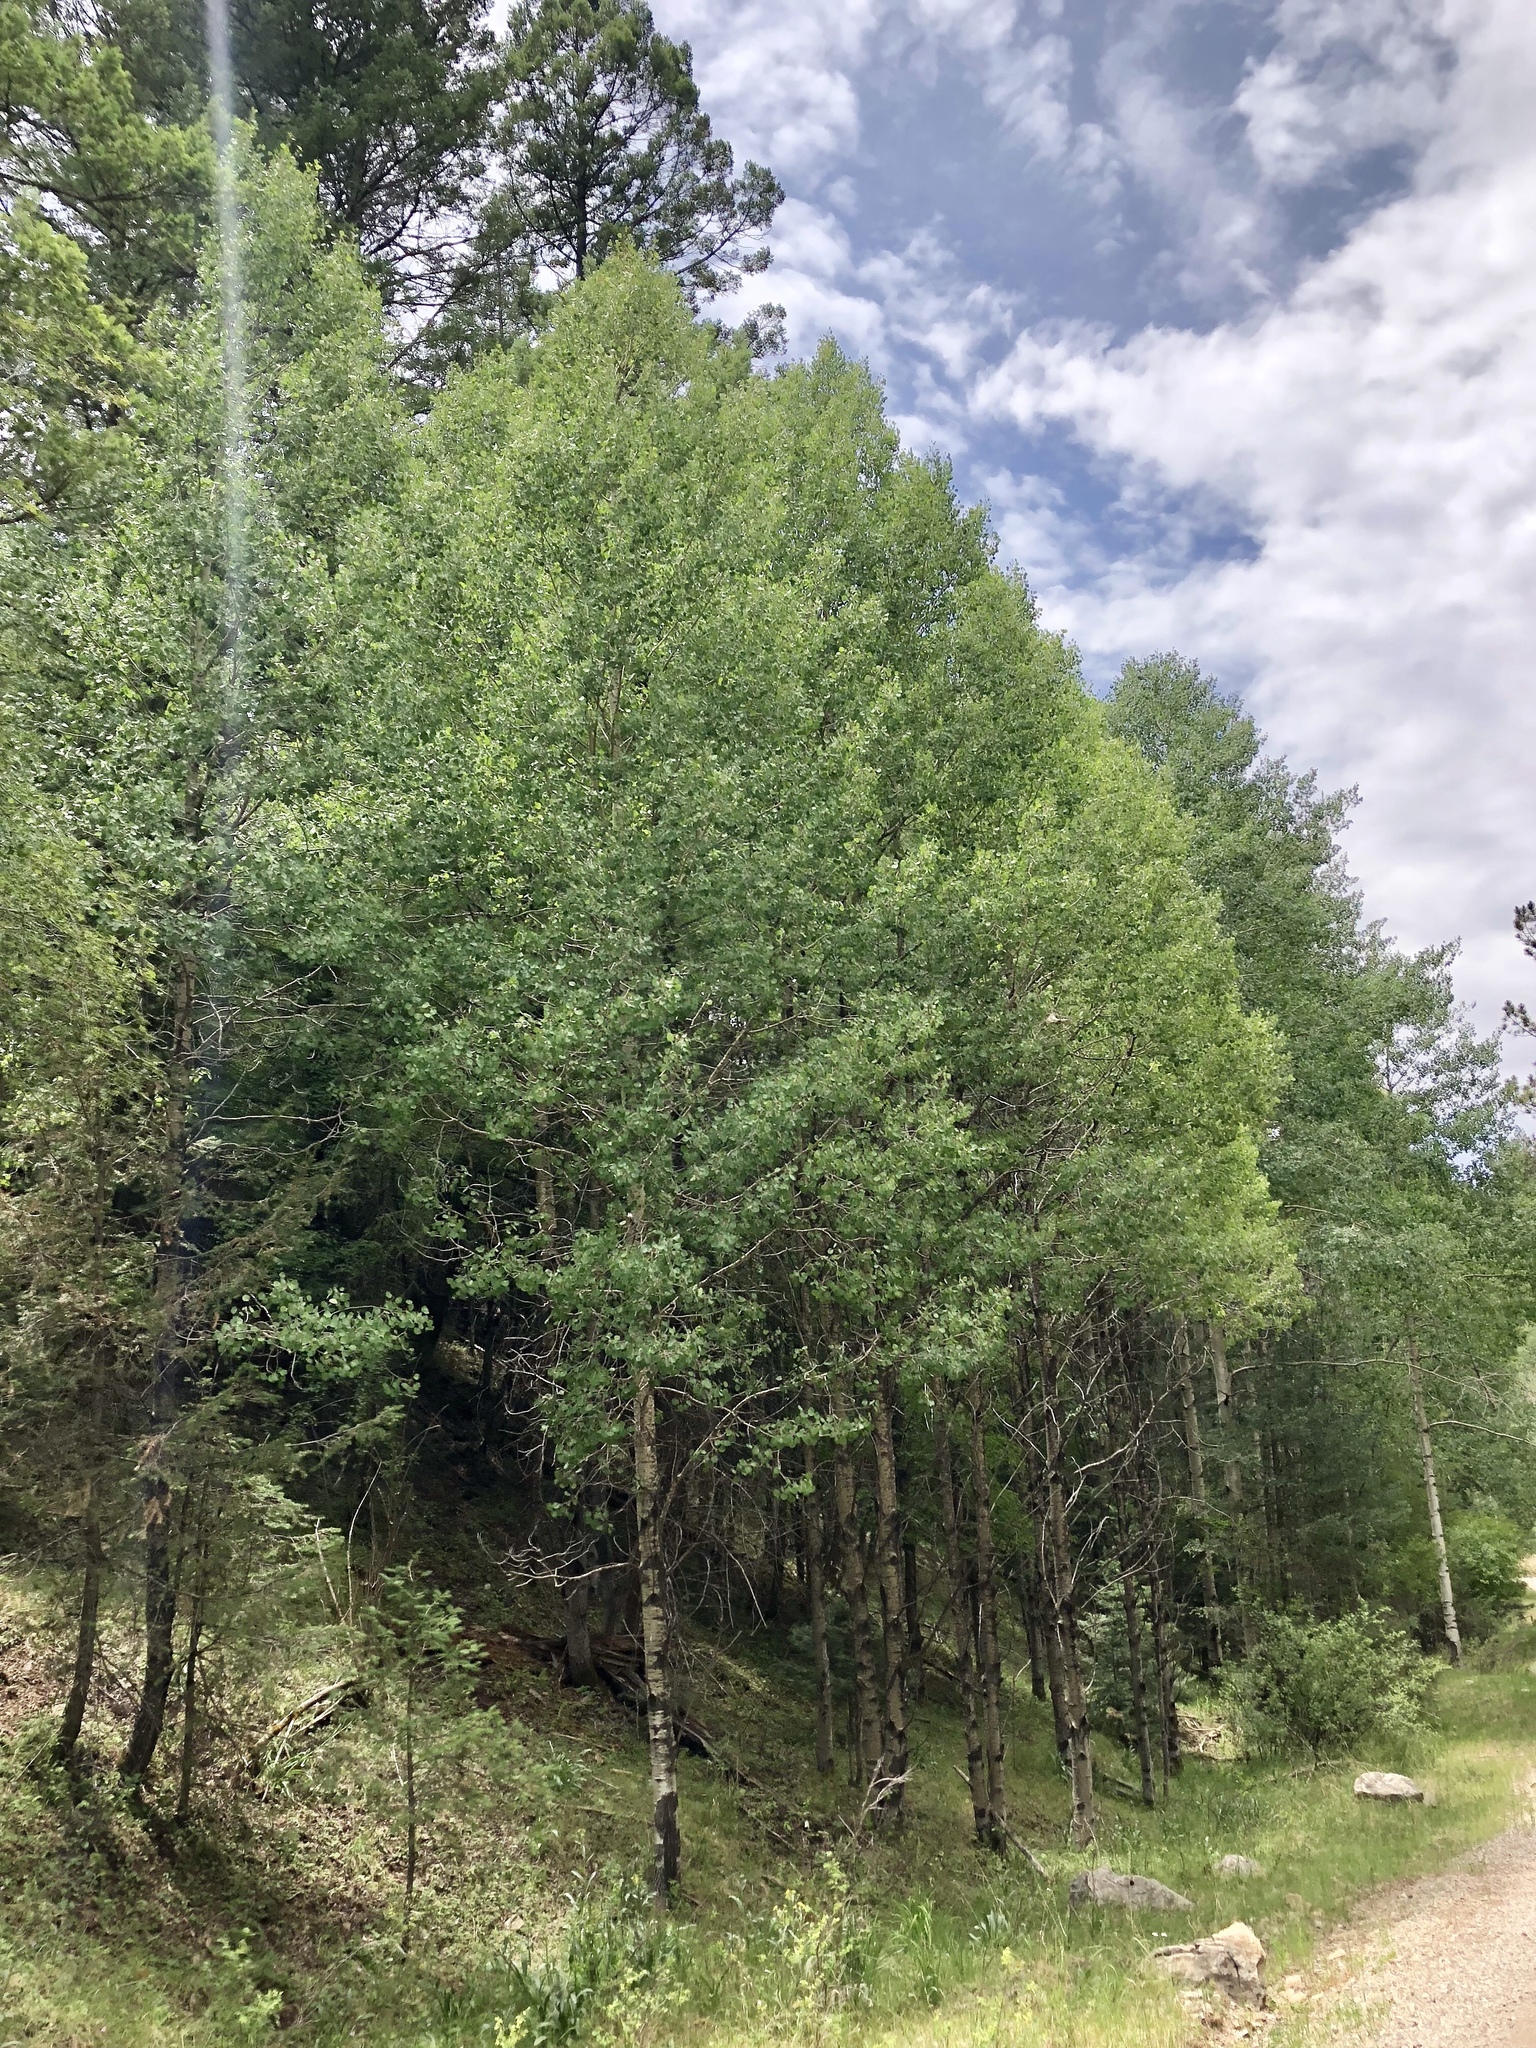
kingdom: Plantae
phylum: Tracheophyta
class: Magnoliopsida
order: Malpighiales
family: Salicaceae
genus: Populus
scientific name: Populus tremuloides
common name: Quaking aspen
